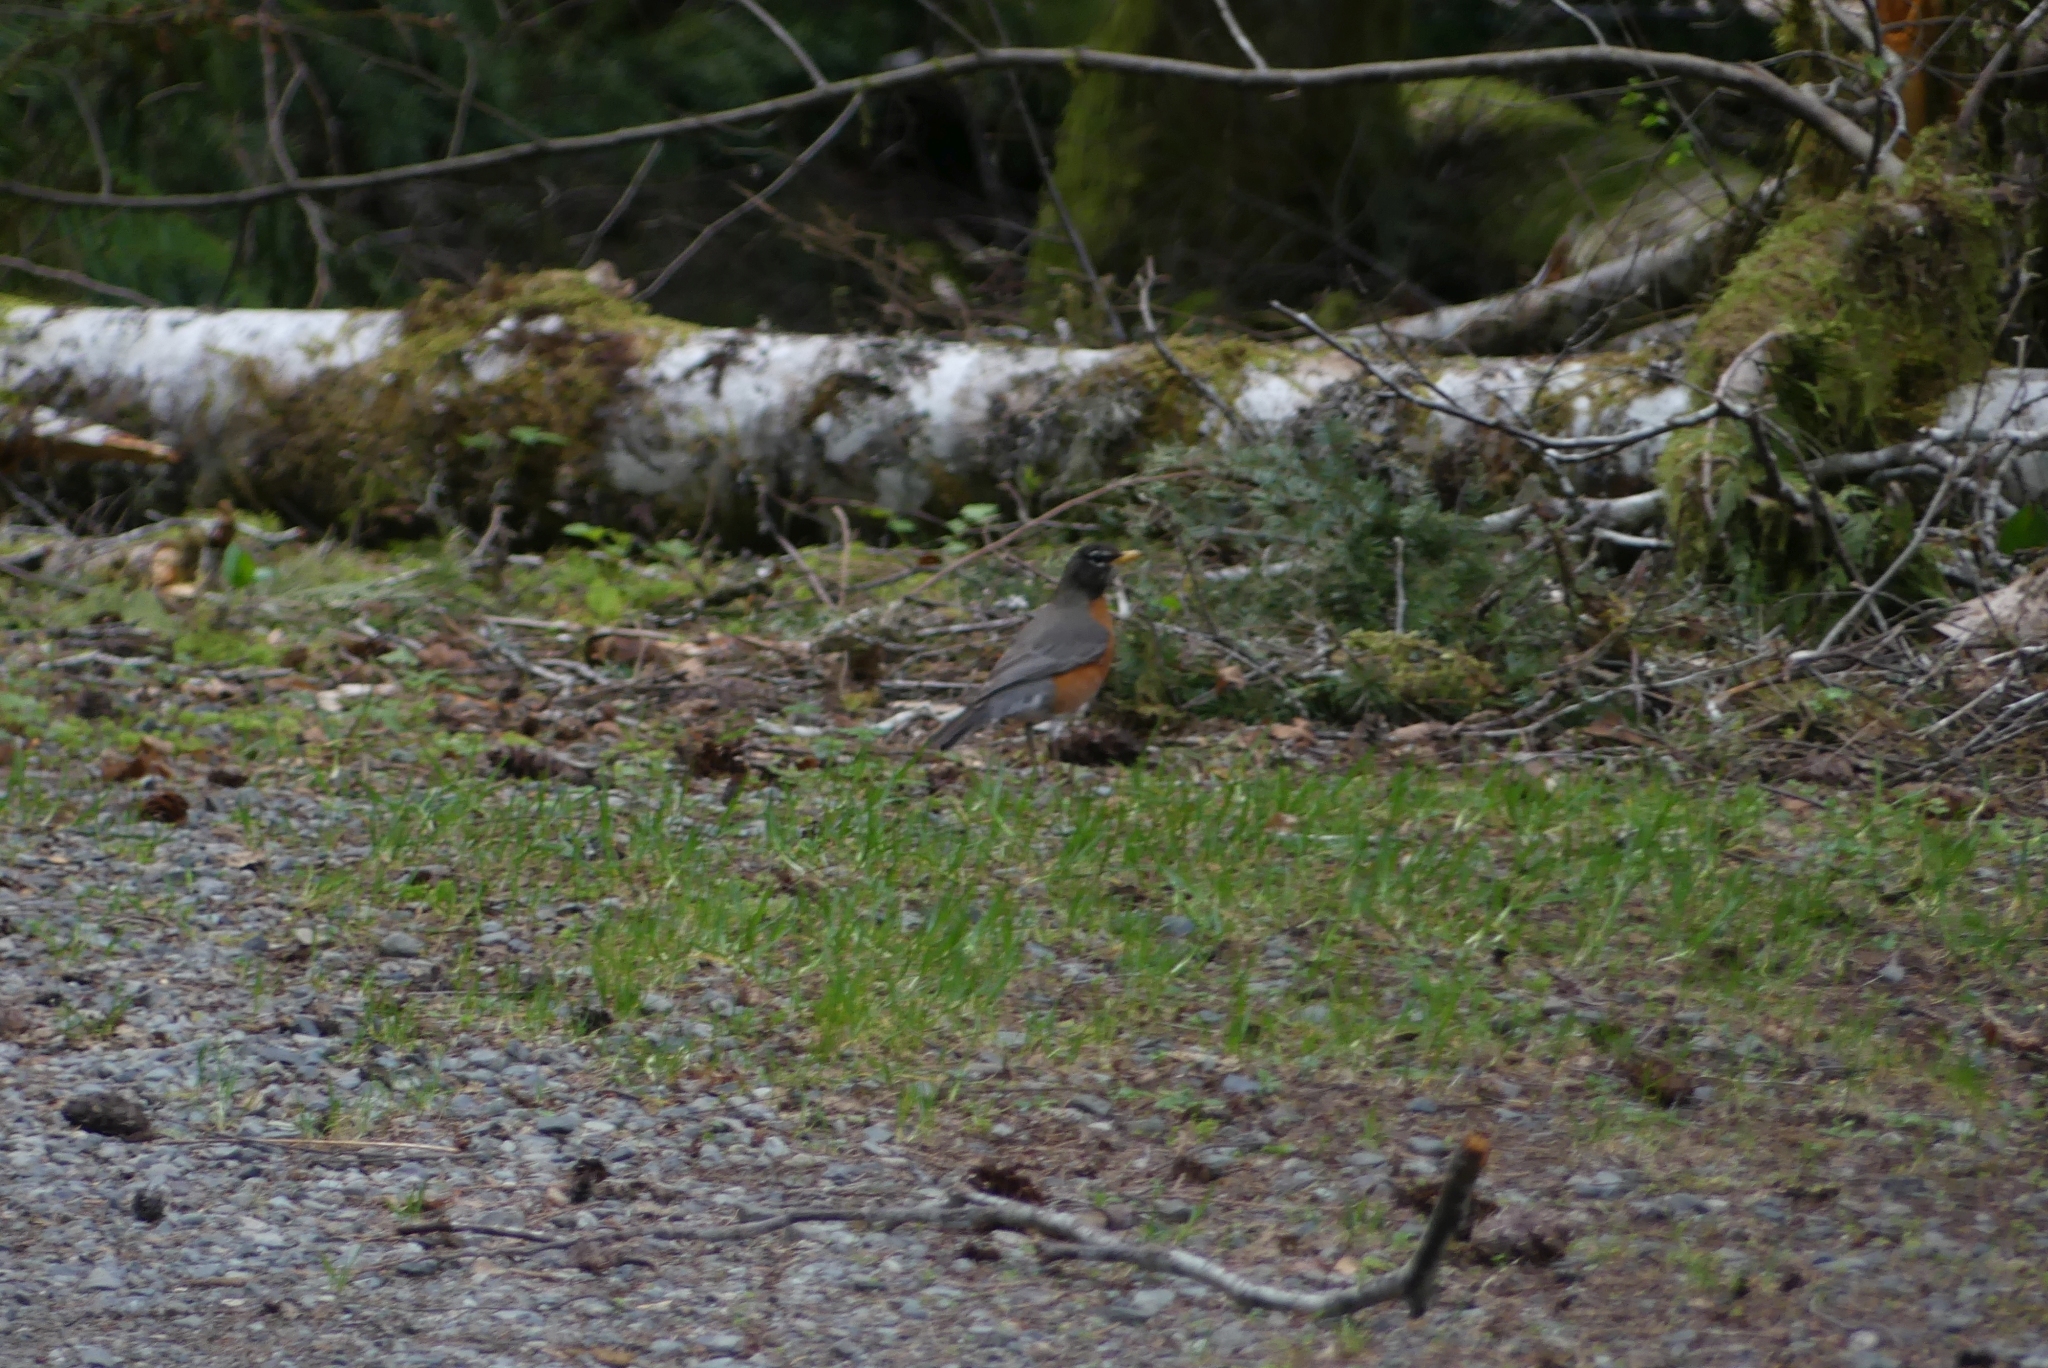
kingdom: Animalia
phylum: Chordata
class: Aves
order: Passeriformes
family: Turdidae
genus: Turdus
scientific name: Turdus migratorius
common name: American robin
